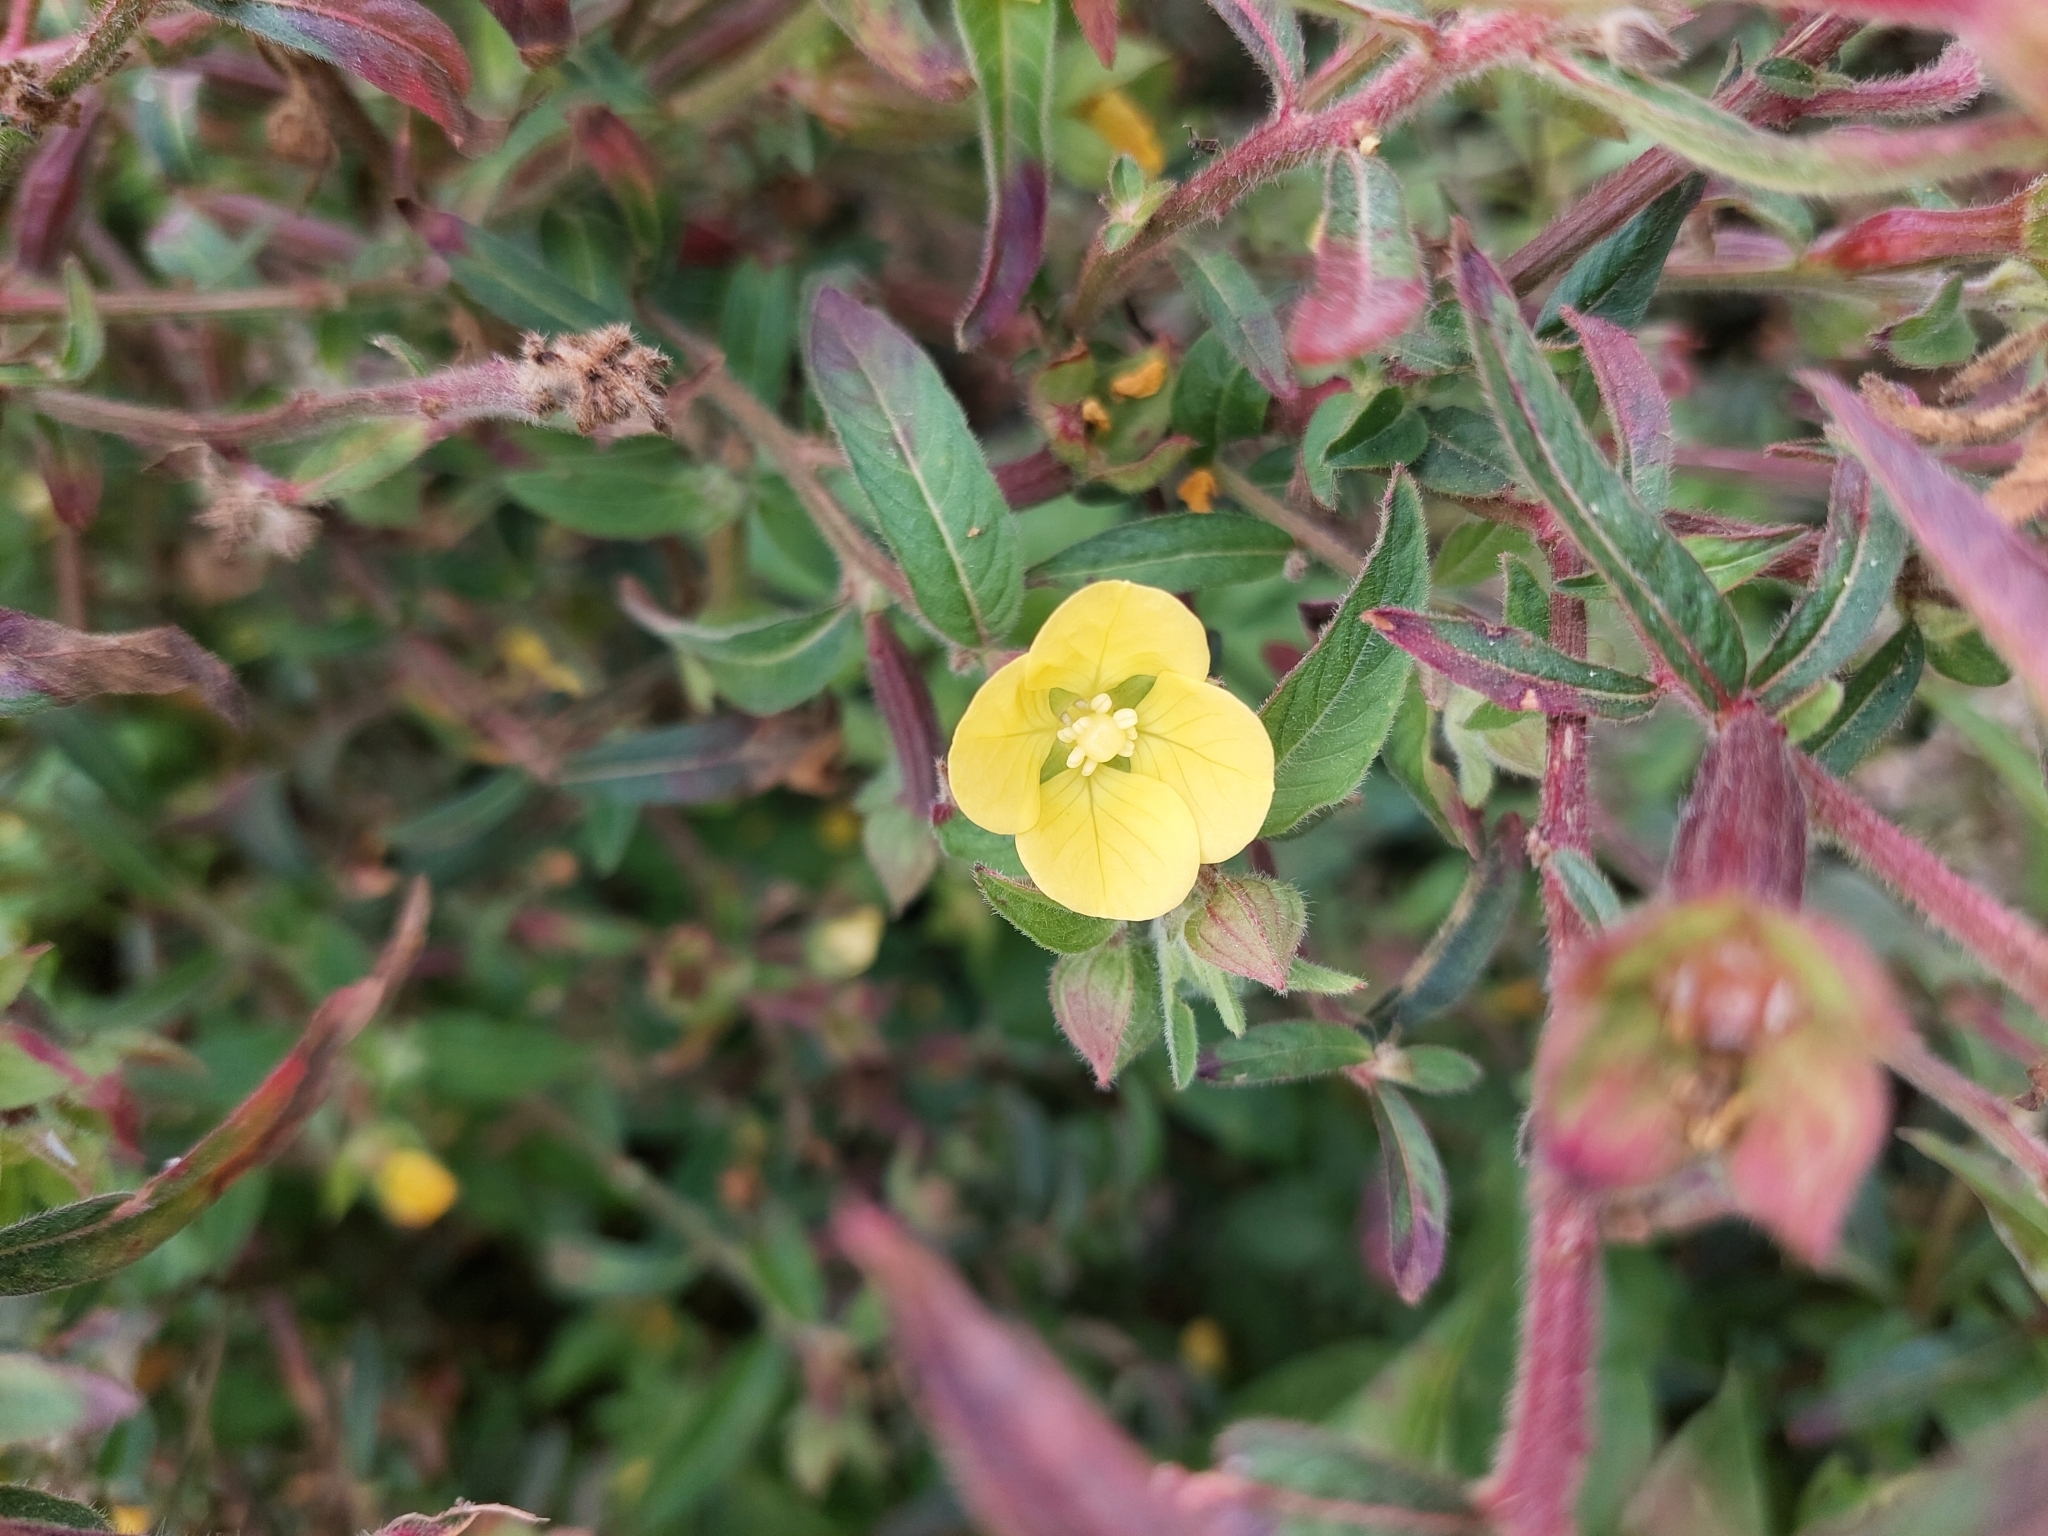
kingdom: Plantae
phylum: Tracheophyta
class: Magnoliopsida
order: Myrtales
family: Onagraceae
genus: Ludwigia
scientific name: Ludwigia octovalvis
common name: Water-primrose
